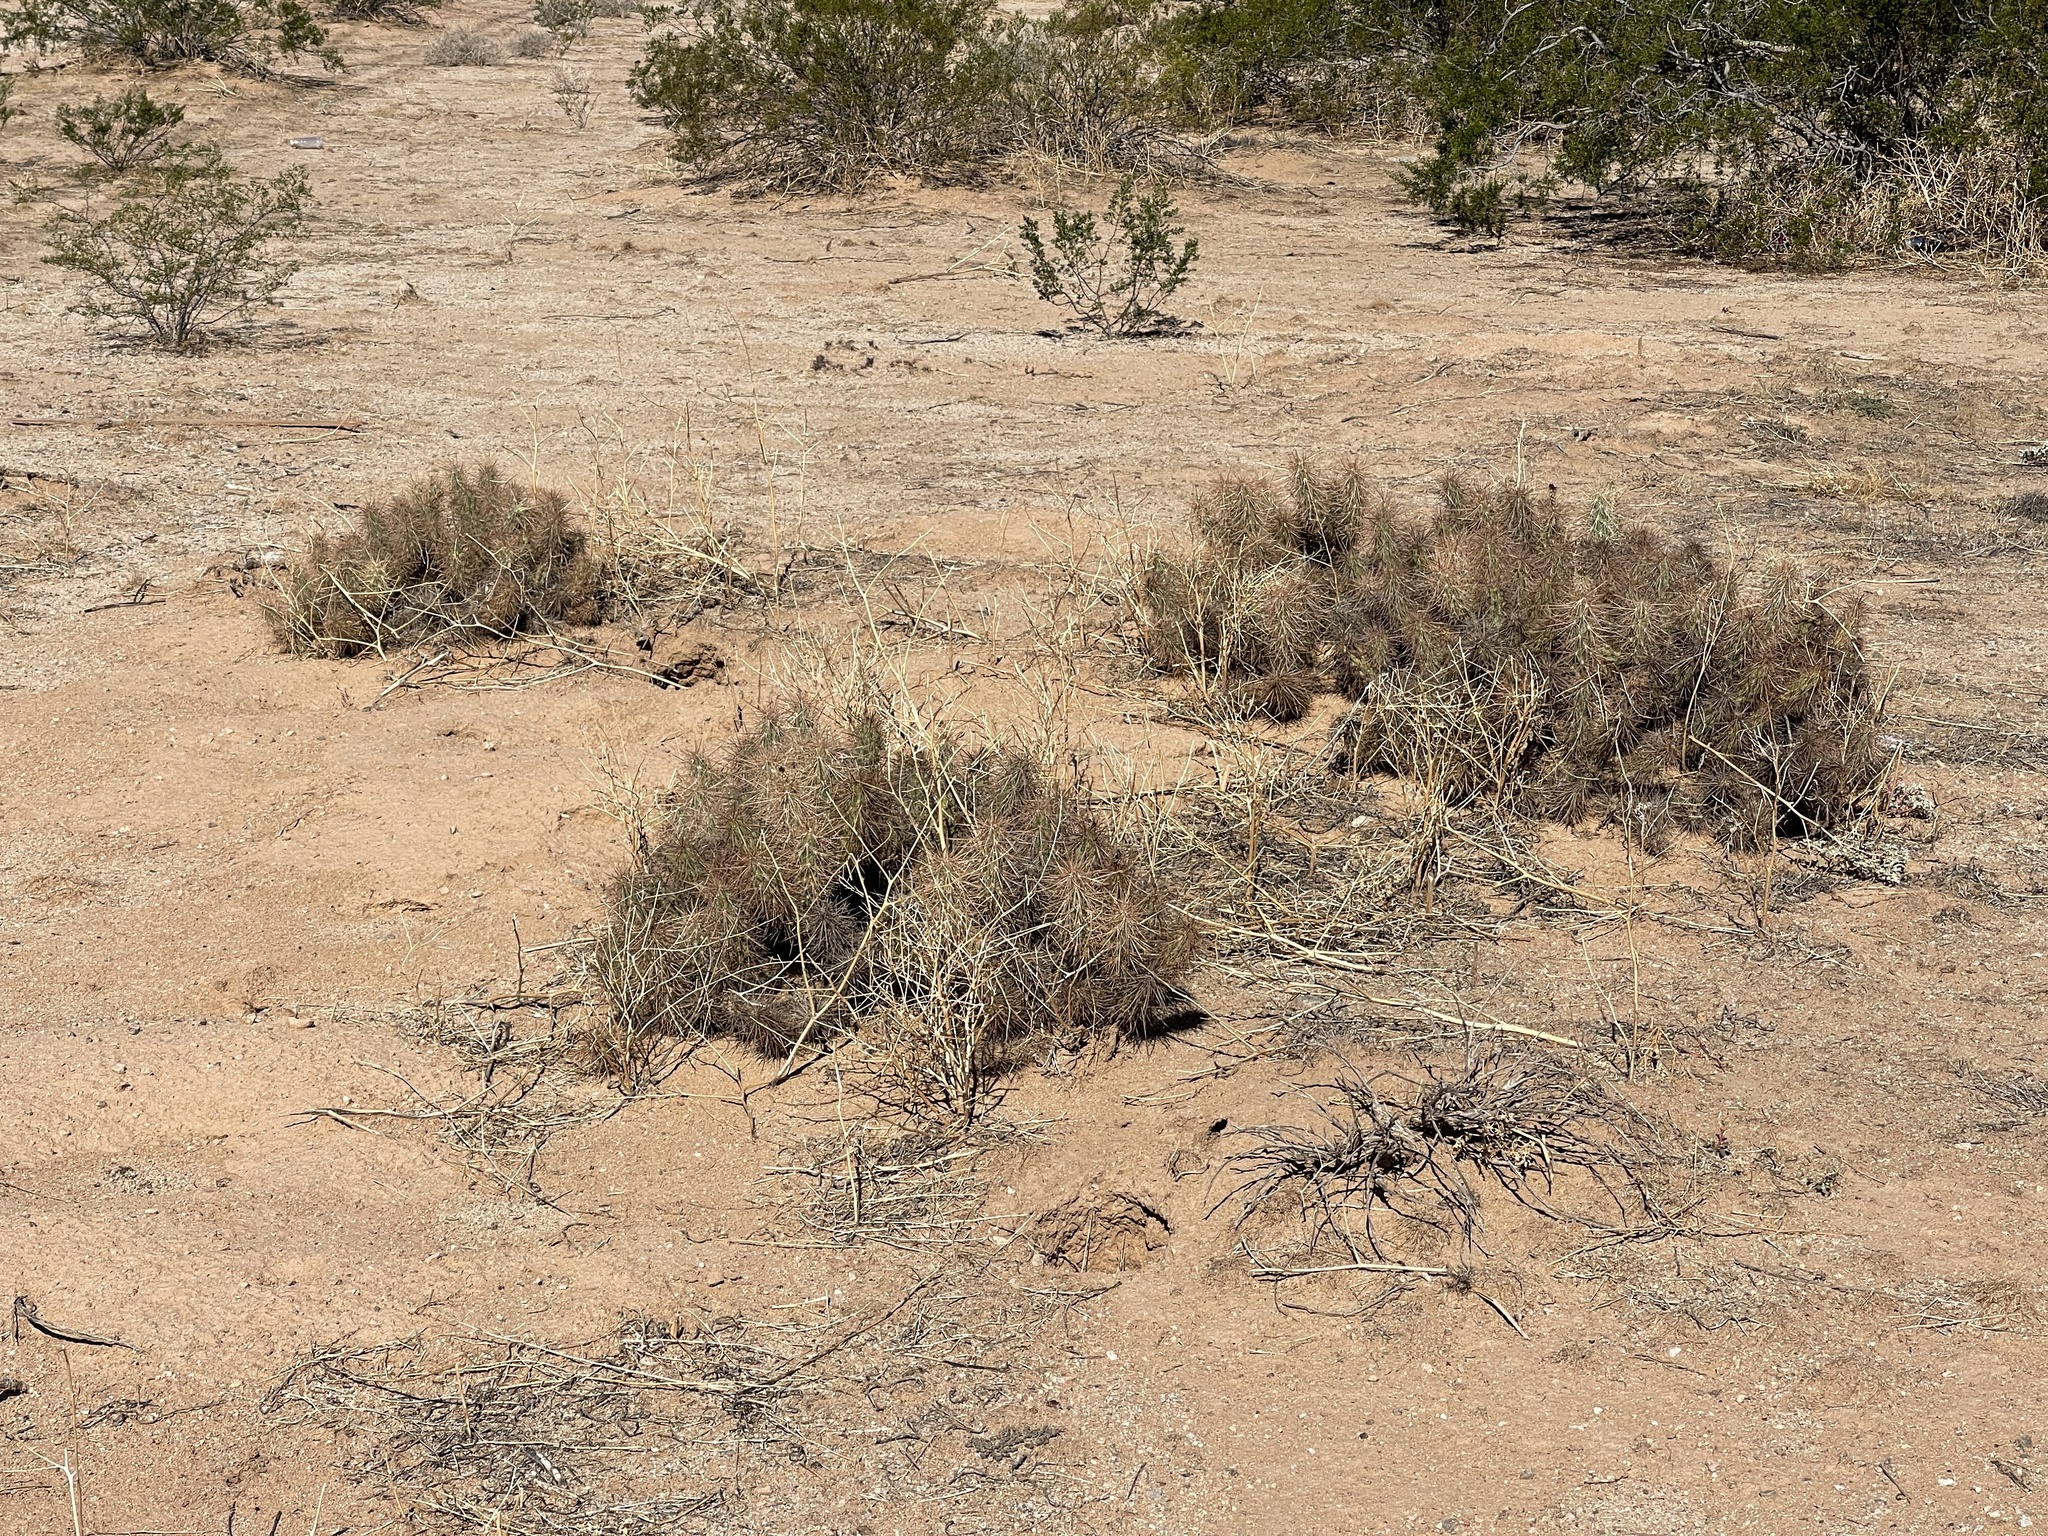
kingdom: Plantae
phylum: Tracheophyta
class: Magnoliopsida
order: Caryophyllales
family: Cactaceae
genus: Grusonia
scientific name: Grusonia kunzei
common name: Wright's club cholla
